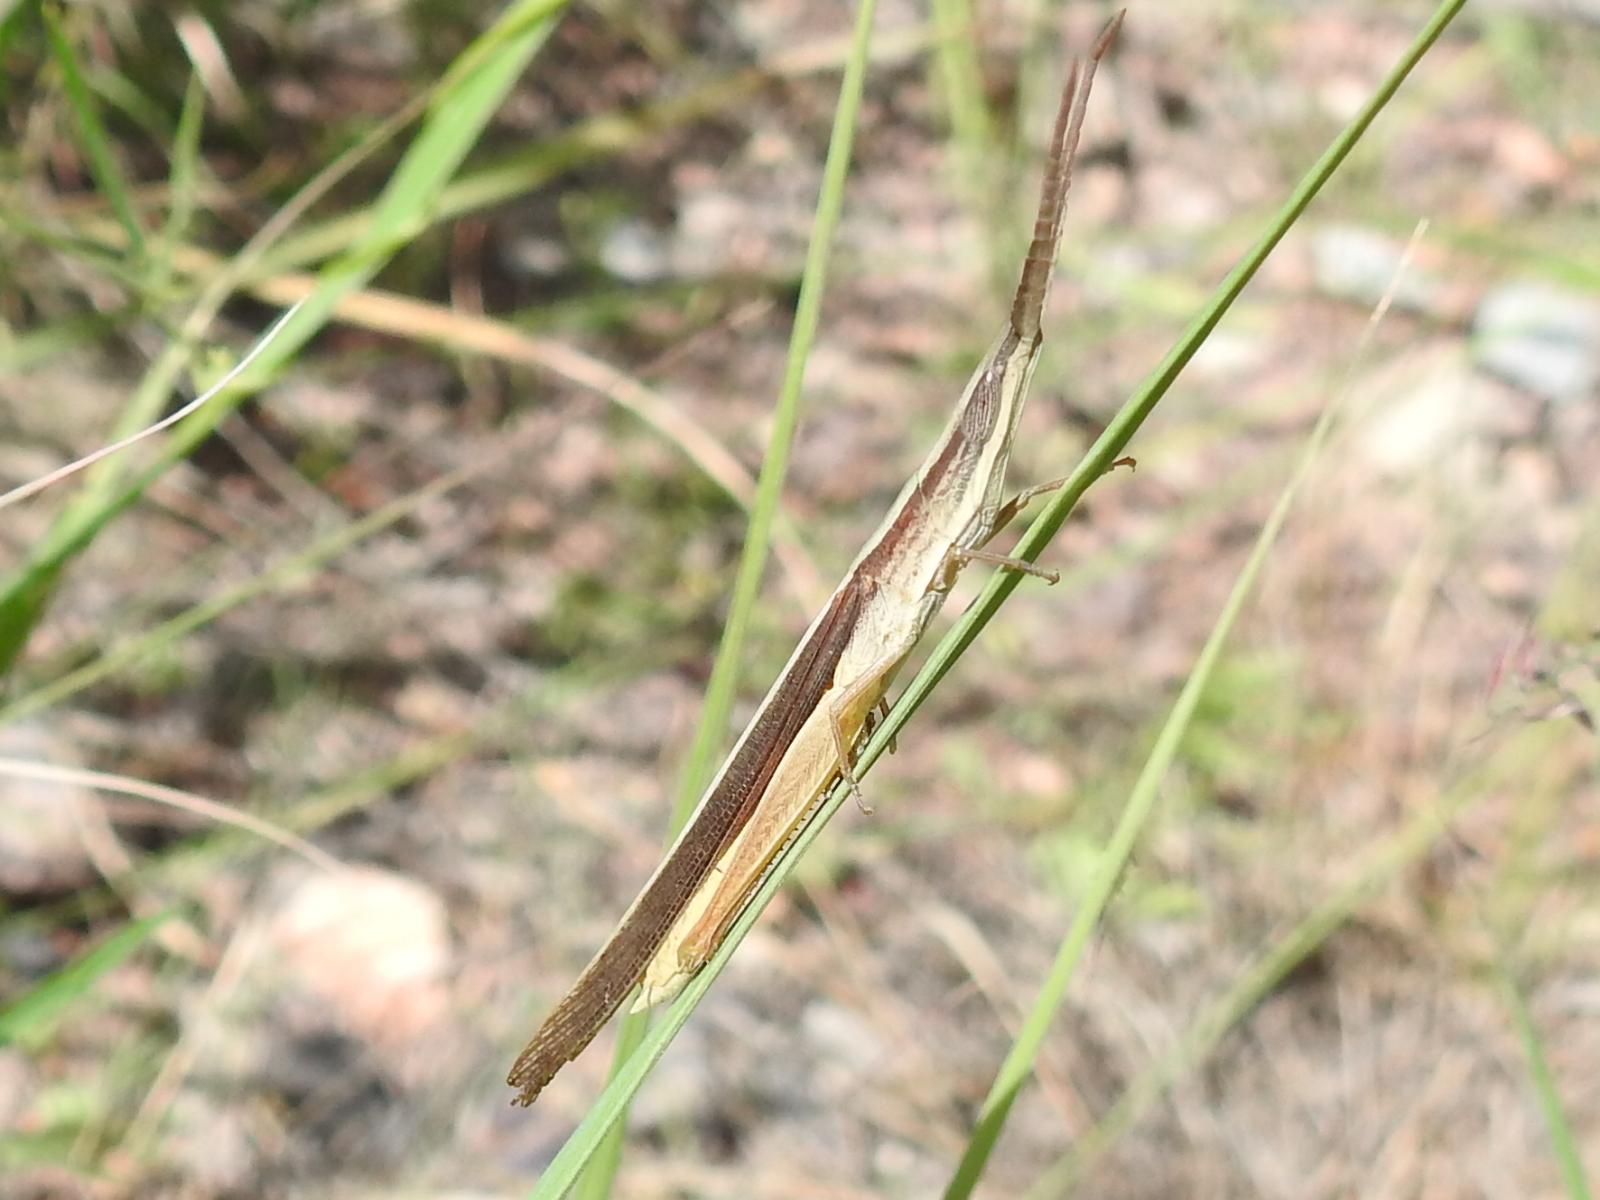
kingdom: Animalia
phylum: Arthropoda
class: Insecta
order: Orthoptera
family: Acrididae
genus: Achurum
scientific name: Achurum sumichrasti
